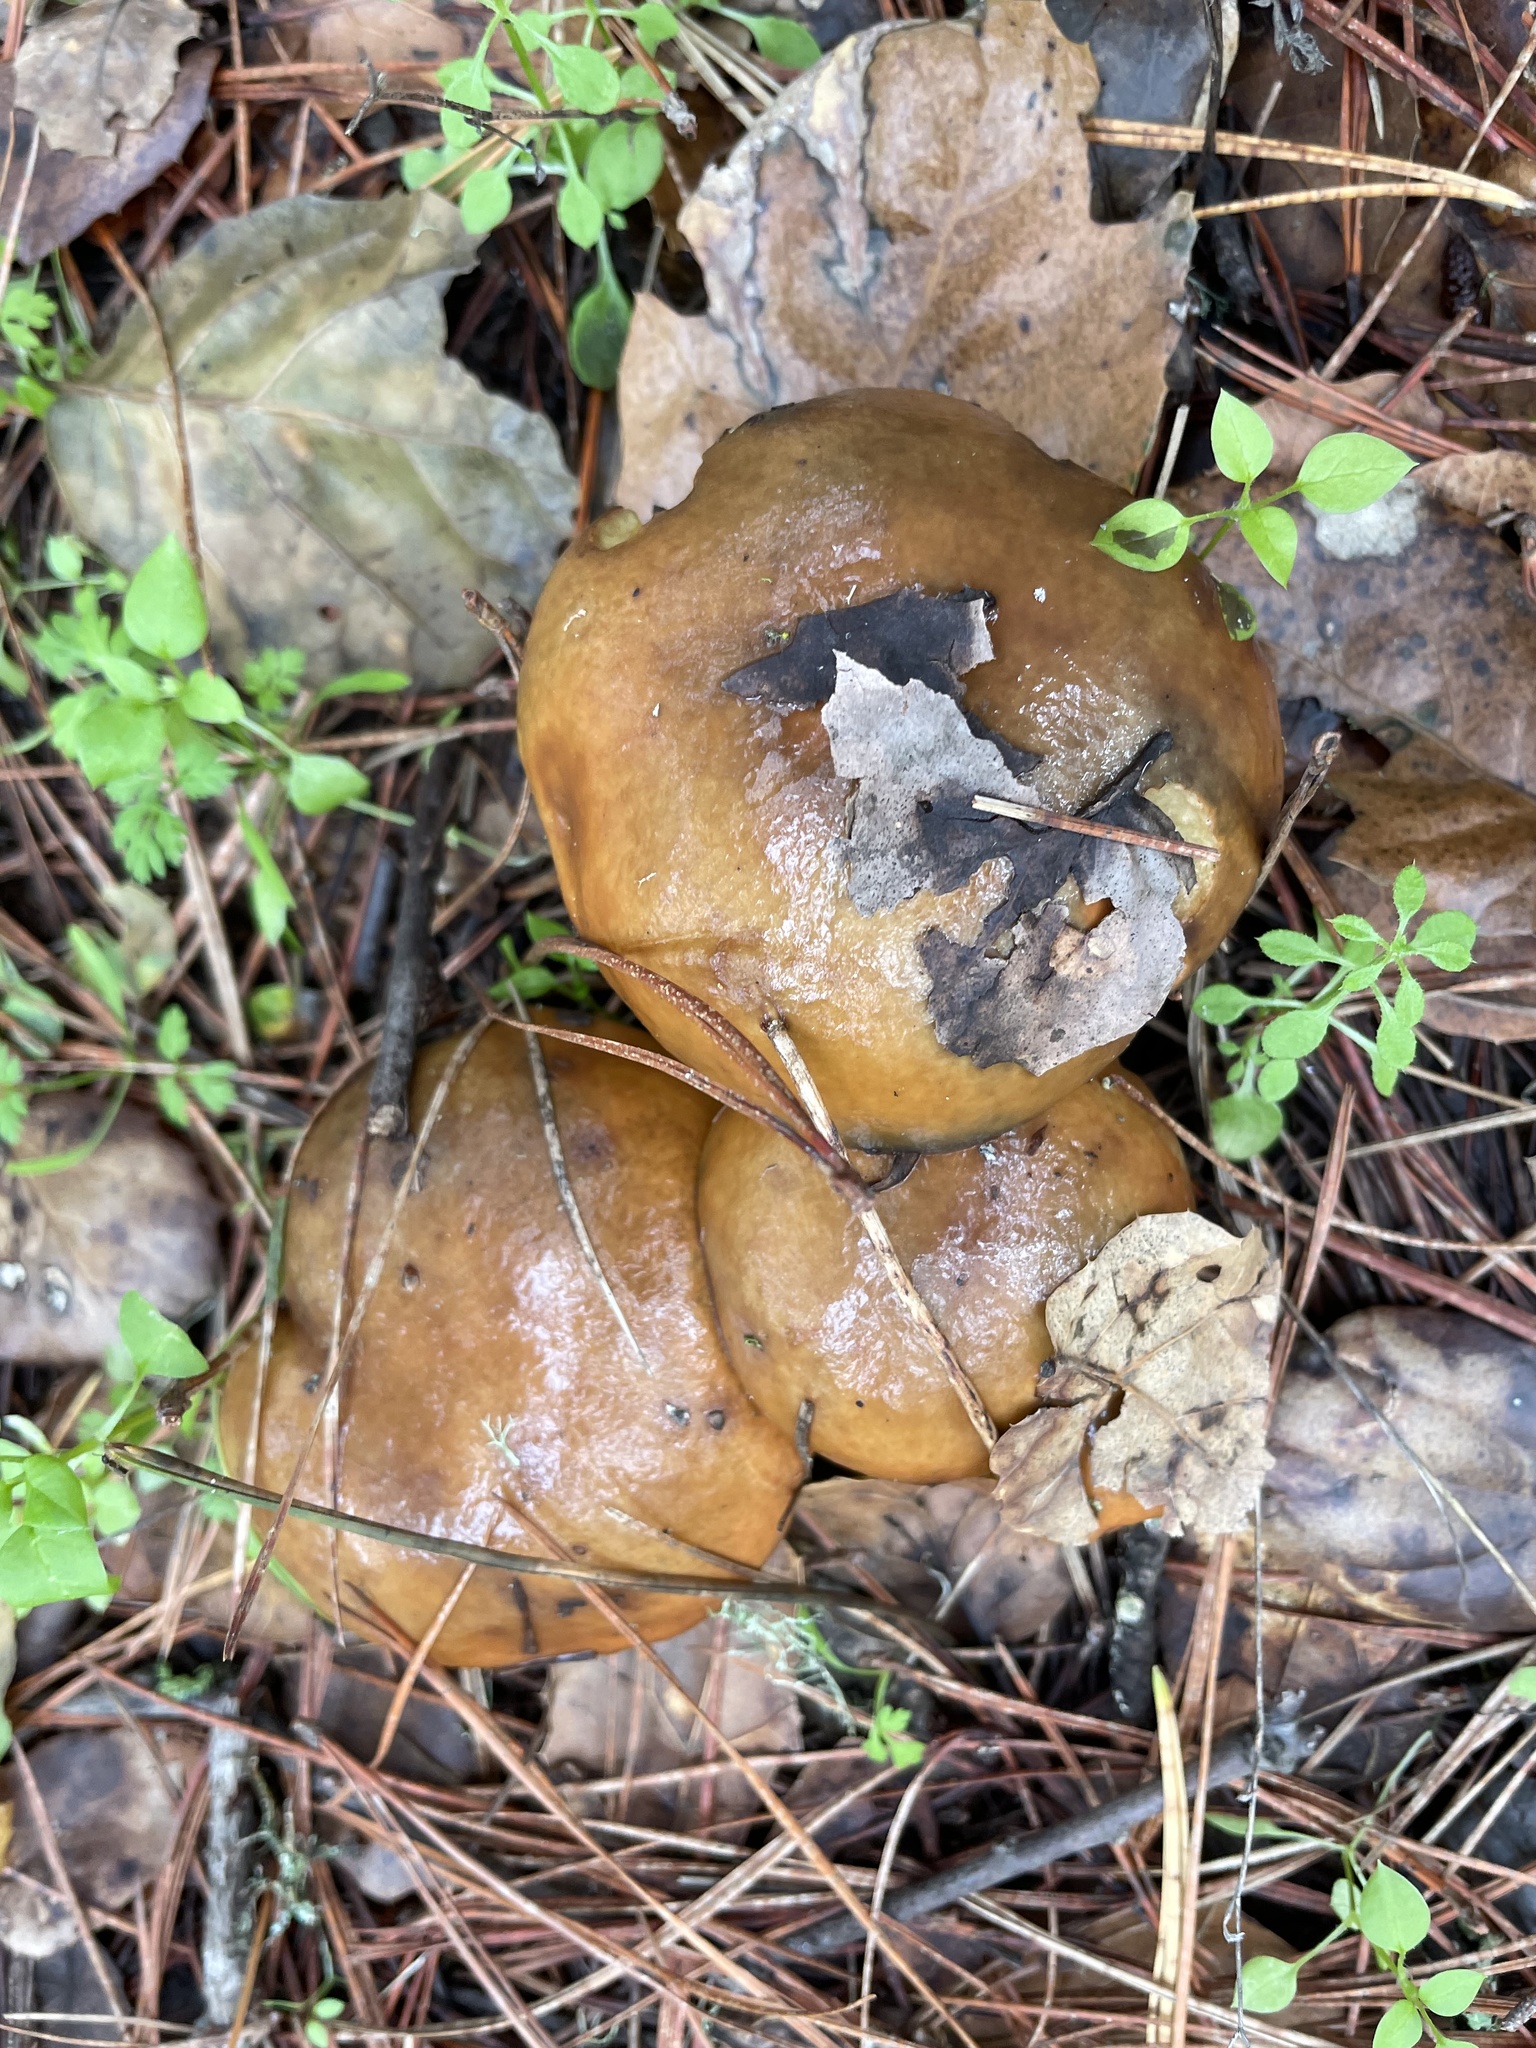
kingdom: Fungi
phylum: Basidiomycota
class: Agaricomycetes
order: Boletales
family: Suillaceae
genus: Suillus
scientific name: Suillus pungens
